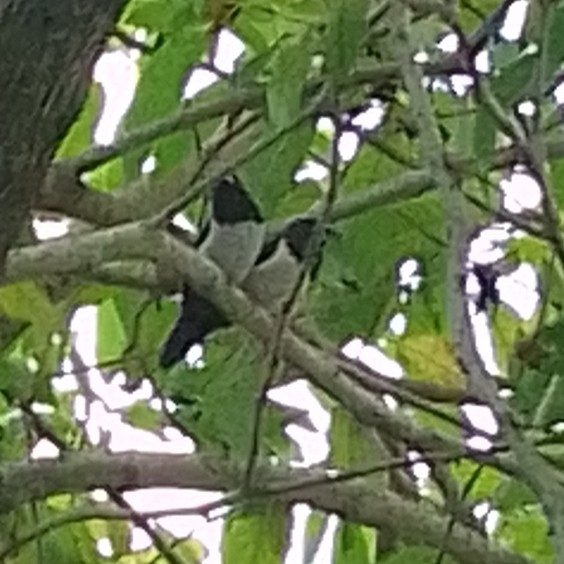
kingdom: Animalia
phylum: Chordata
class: Aves
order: Passeriformes
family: Estrildidae
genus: Lonchura
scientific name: Lonchura striata
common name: White-rumped munia
